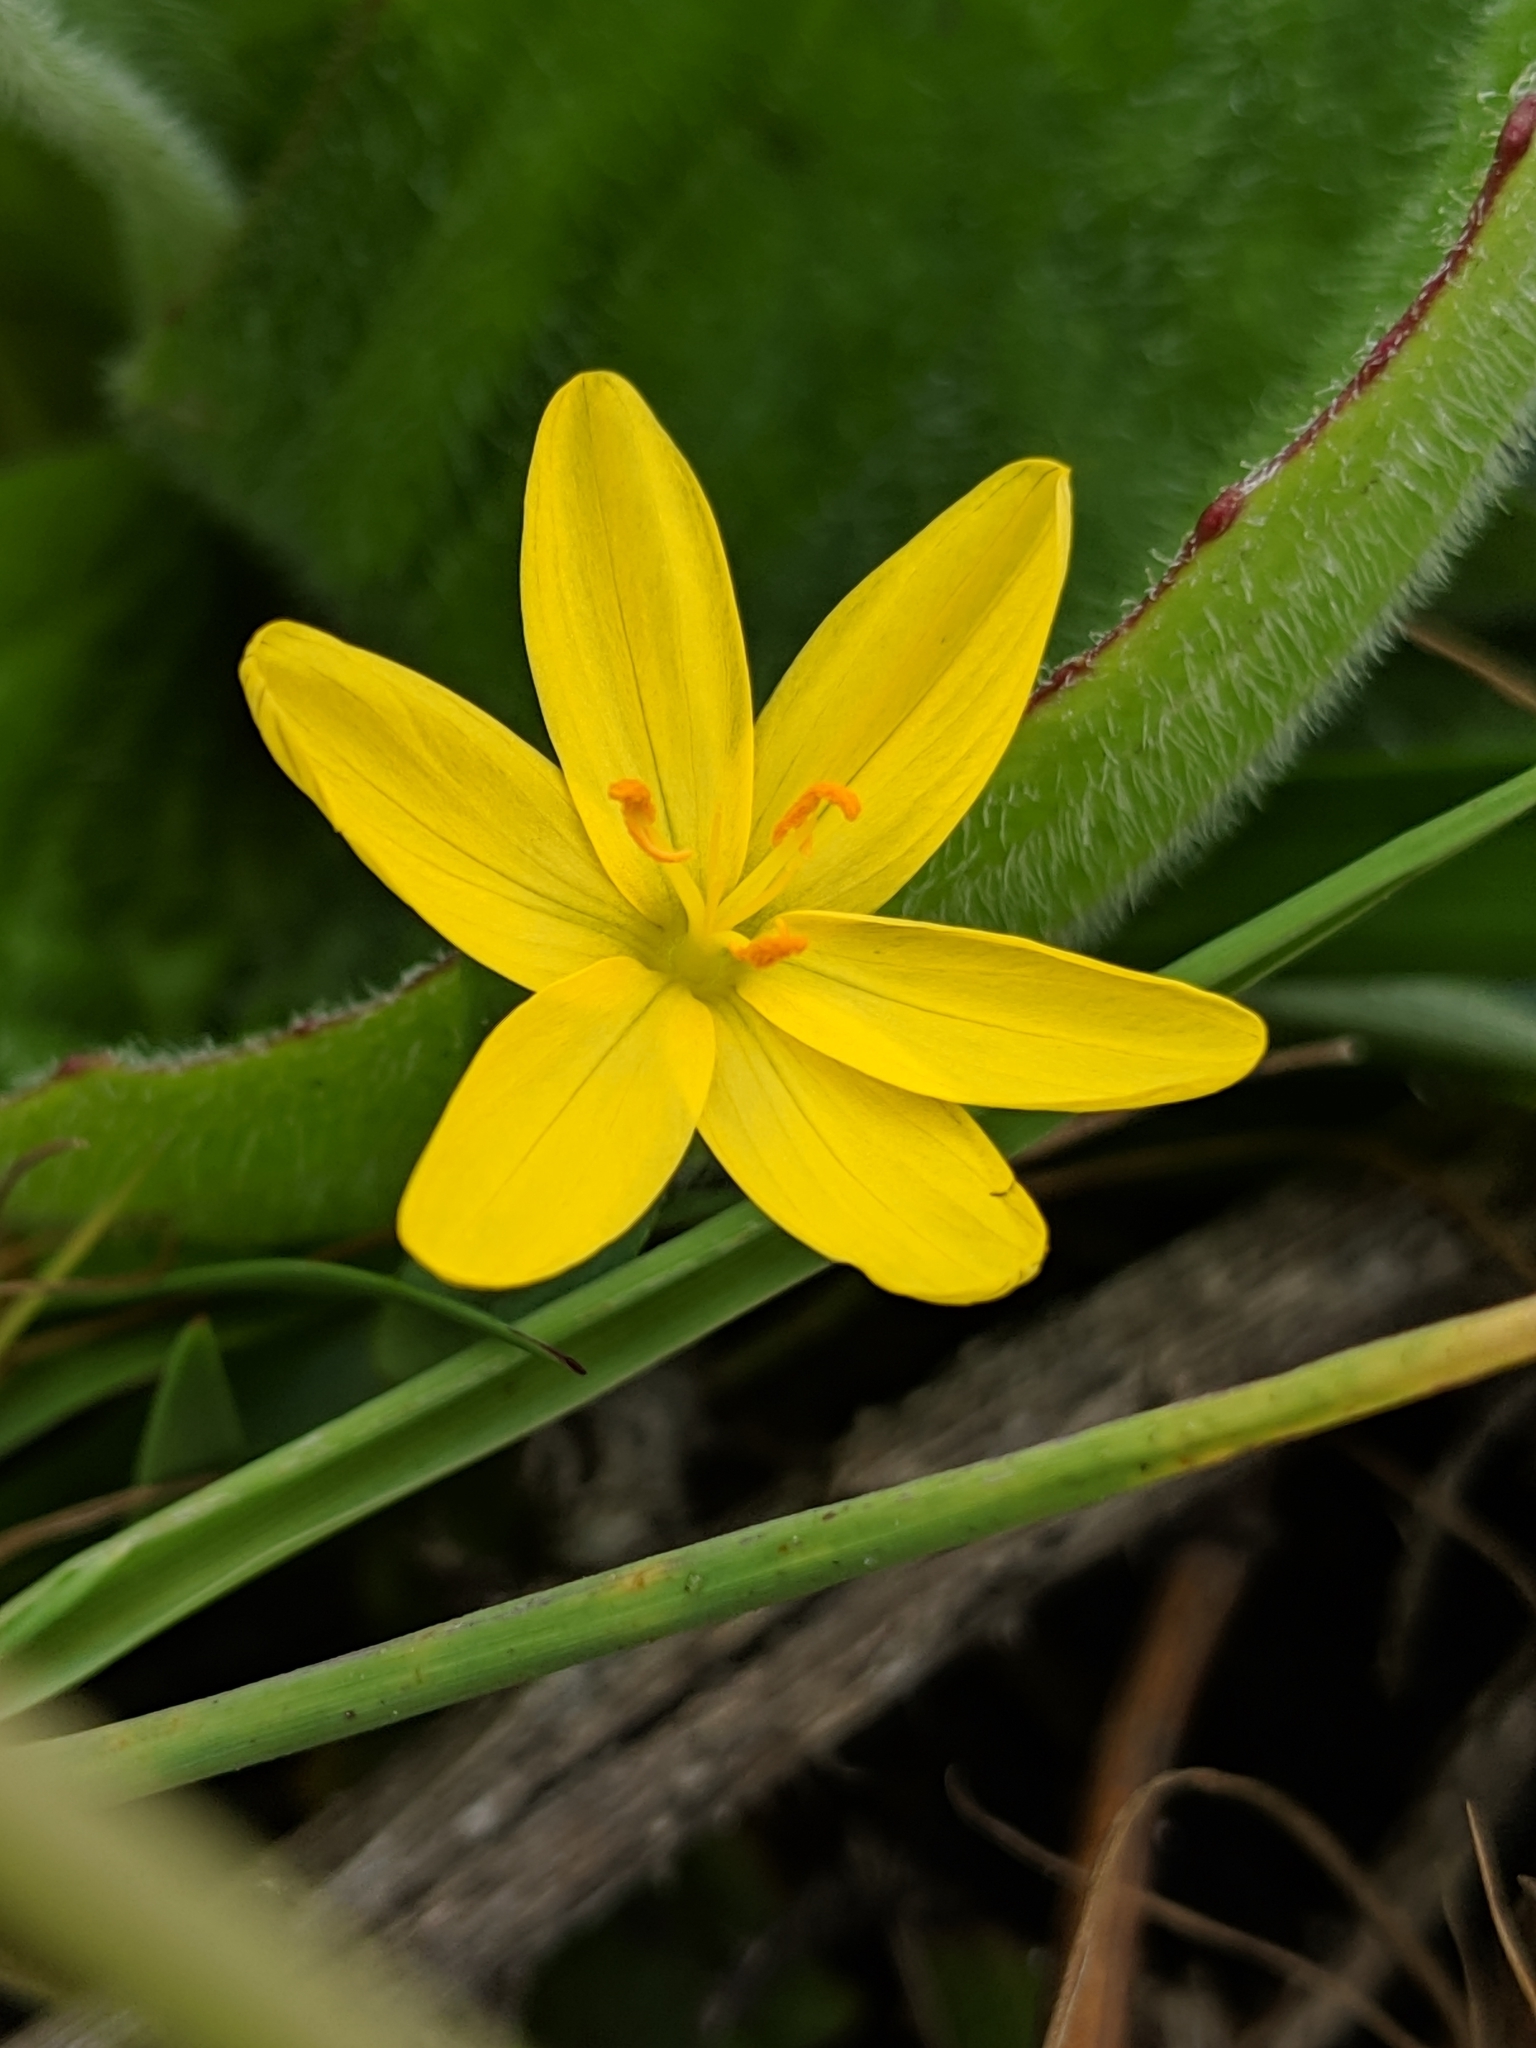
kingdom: Plantae
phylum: Tracheophyta
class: Liliopsida
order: Asparagales
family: Iridaceae
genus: Sisyrinchium
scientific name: Sisyrinchium californicum
